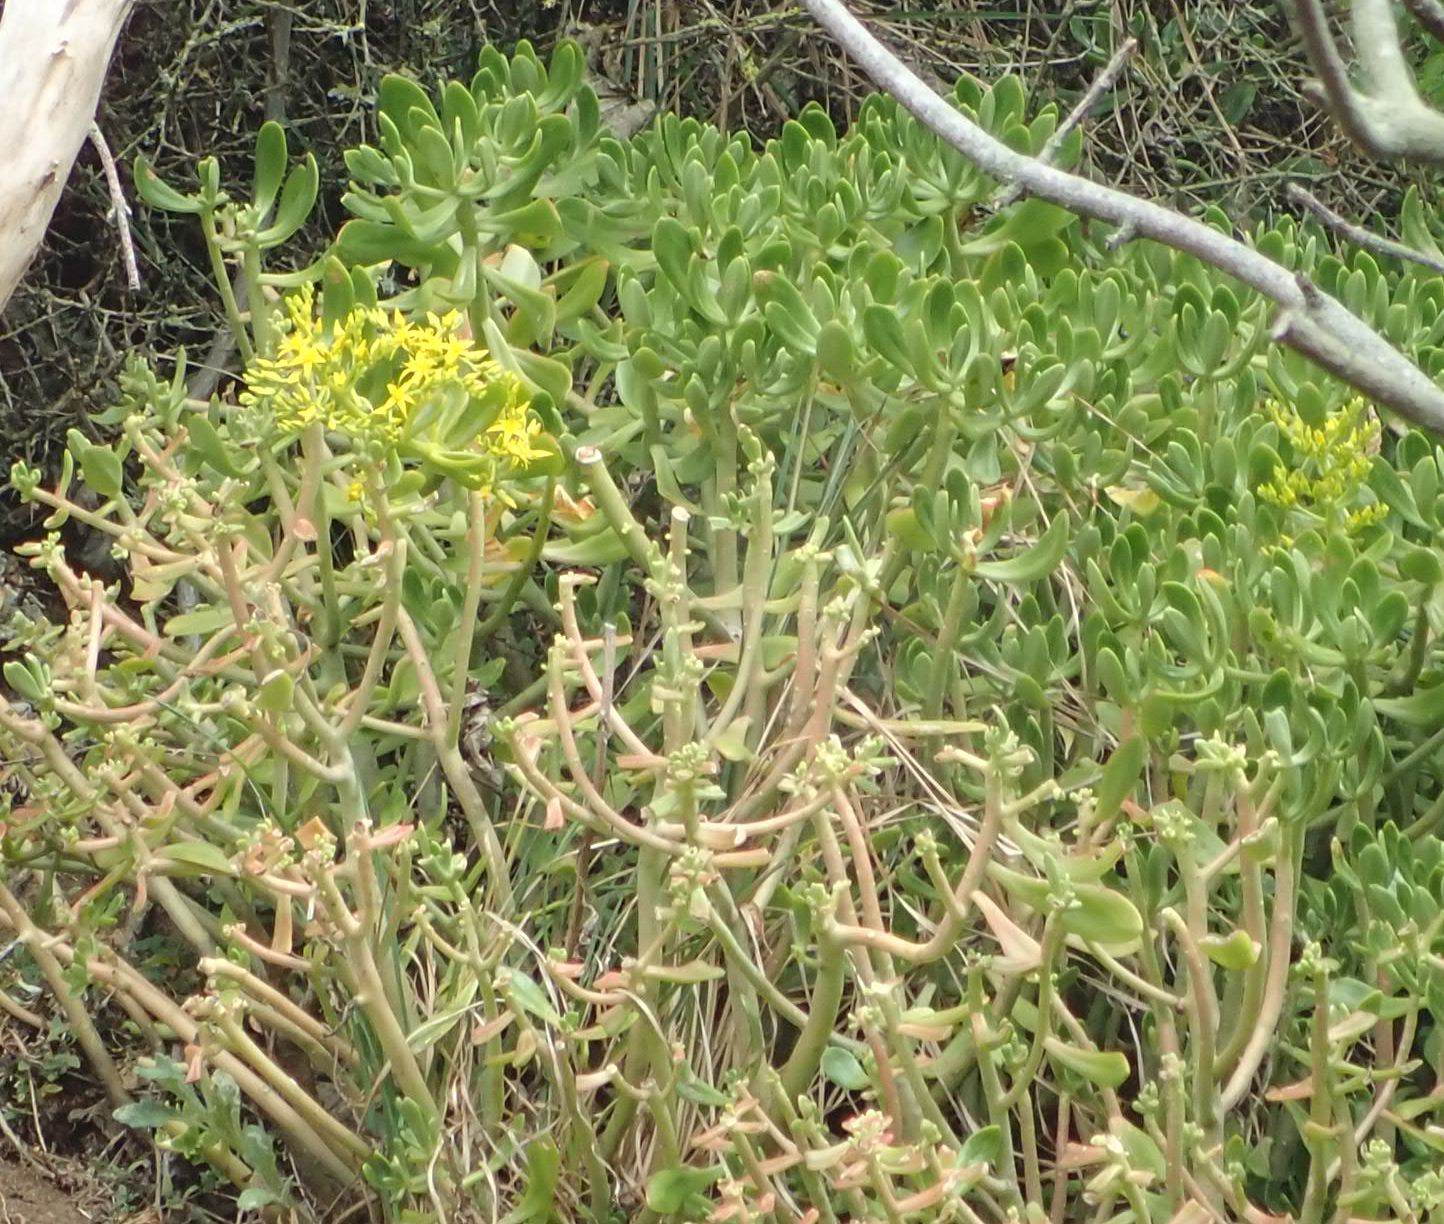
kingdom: Plantae
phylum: Tracheophyta
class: Magnoliopsida
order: Saxifragales
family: Crassulaceae
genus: Sedum
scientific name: Sedum praealtum
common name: Greater mexican-stonecrop
